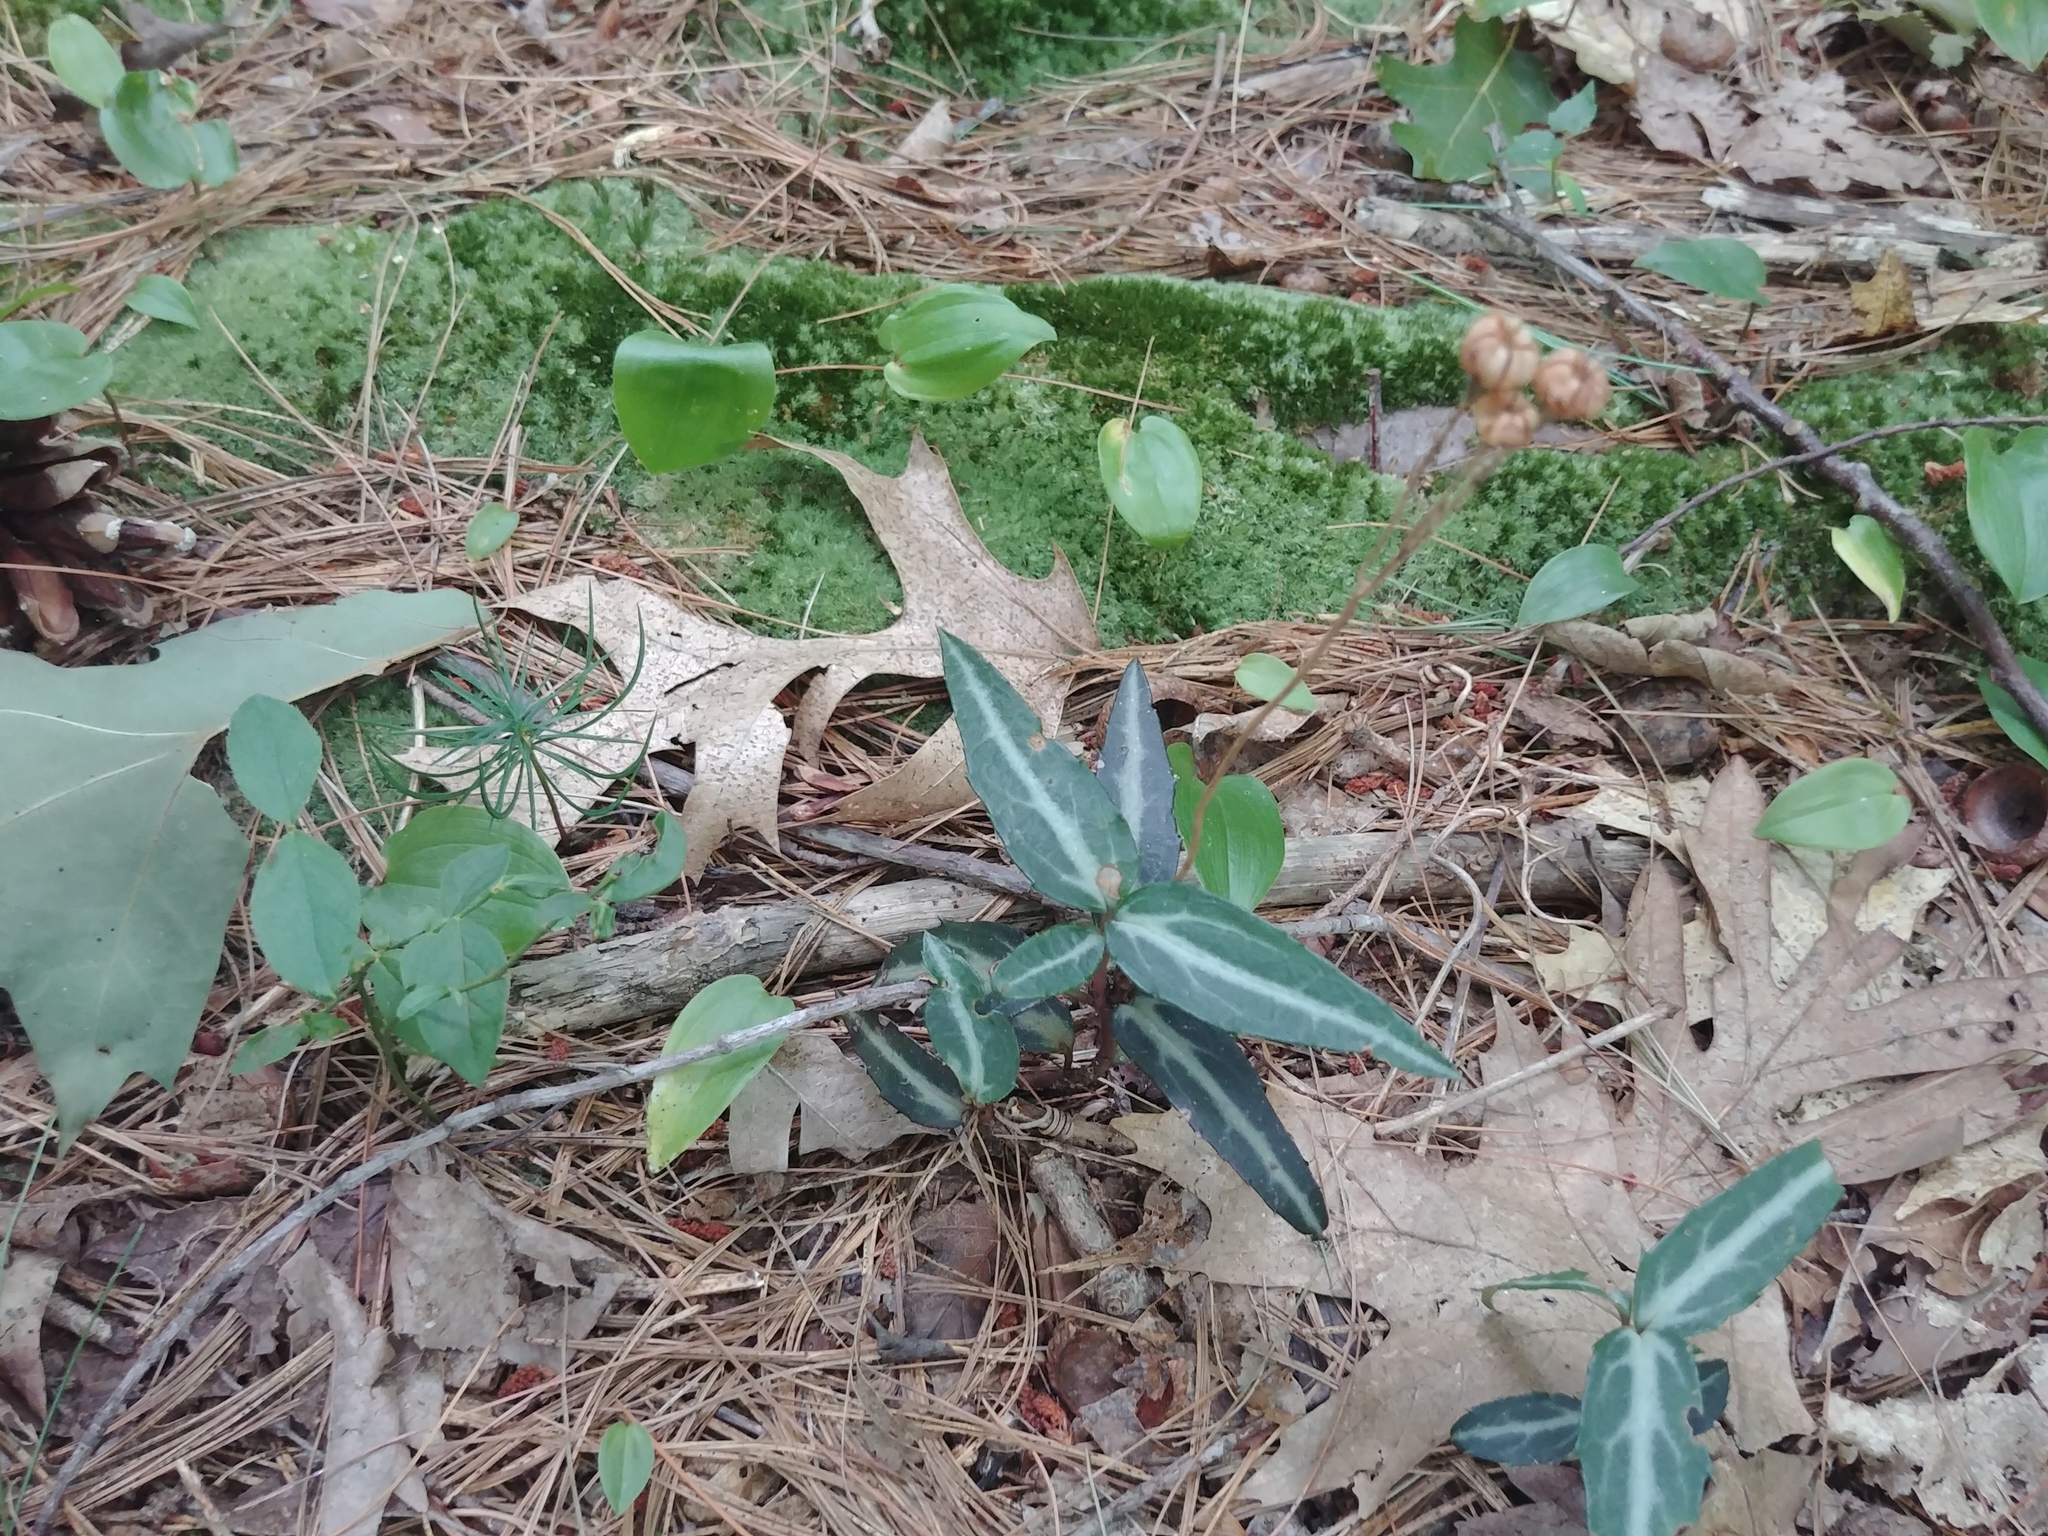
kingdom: Plantae
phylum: Tracheophyta
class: Magnoliopsida
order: Ericales
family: Ericaceae
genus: Chimaphila
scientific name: Chimaphila maculata
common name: Spotted pipsissewa
